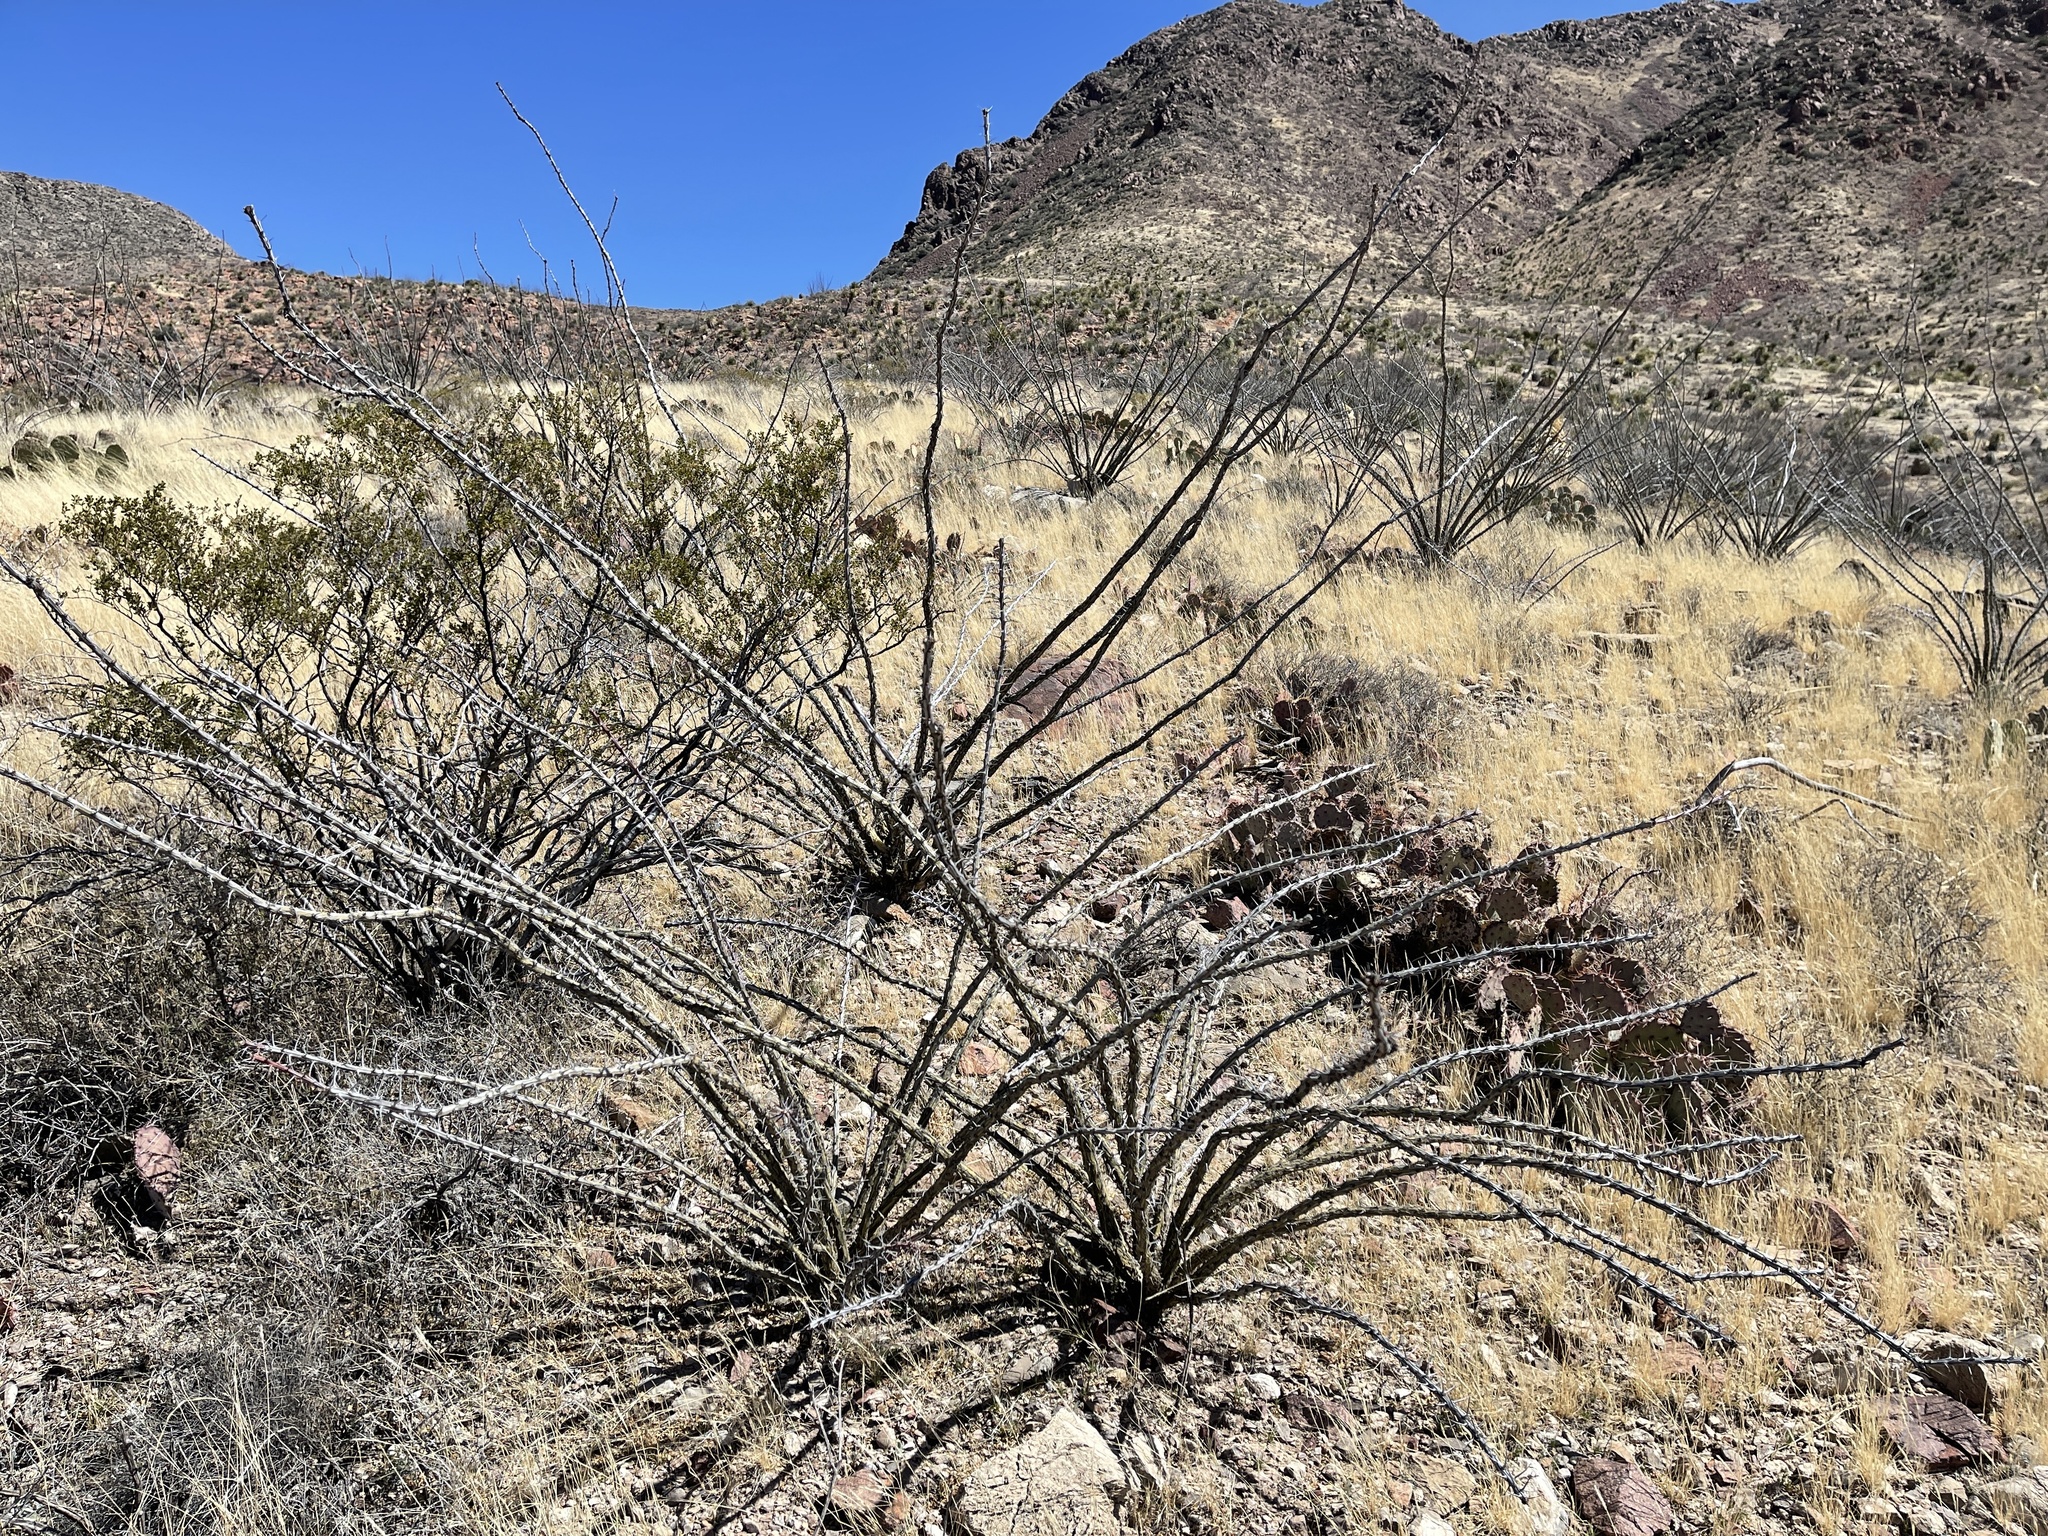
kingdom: Plantae
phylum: Tracheophyta
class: Magnoliopsida
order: Ericales
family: Fouquieriaceae
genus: Fouquieria
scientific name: Fouquieria splendens
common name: Vine-cactus
